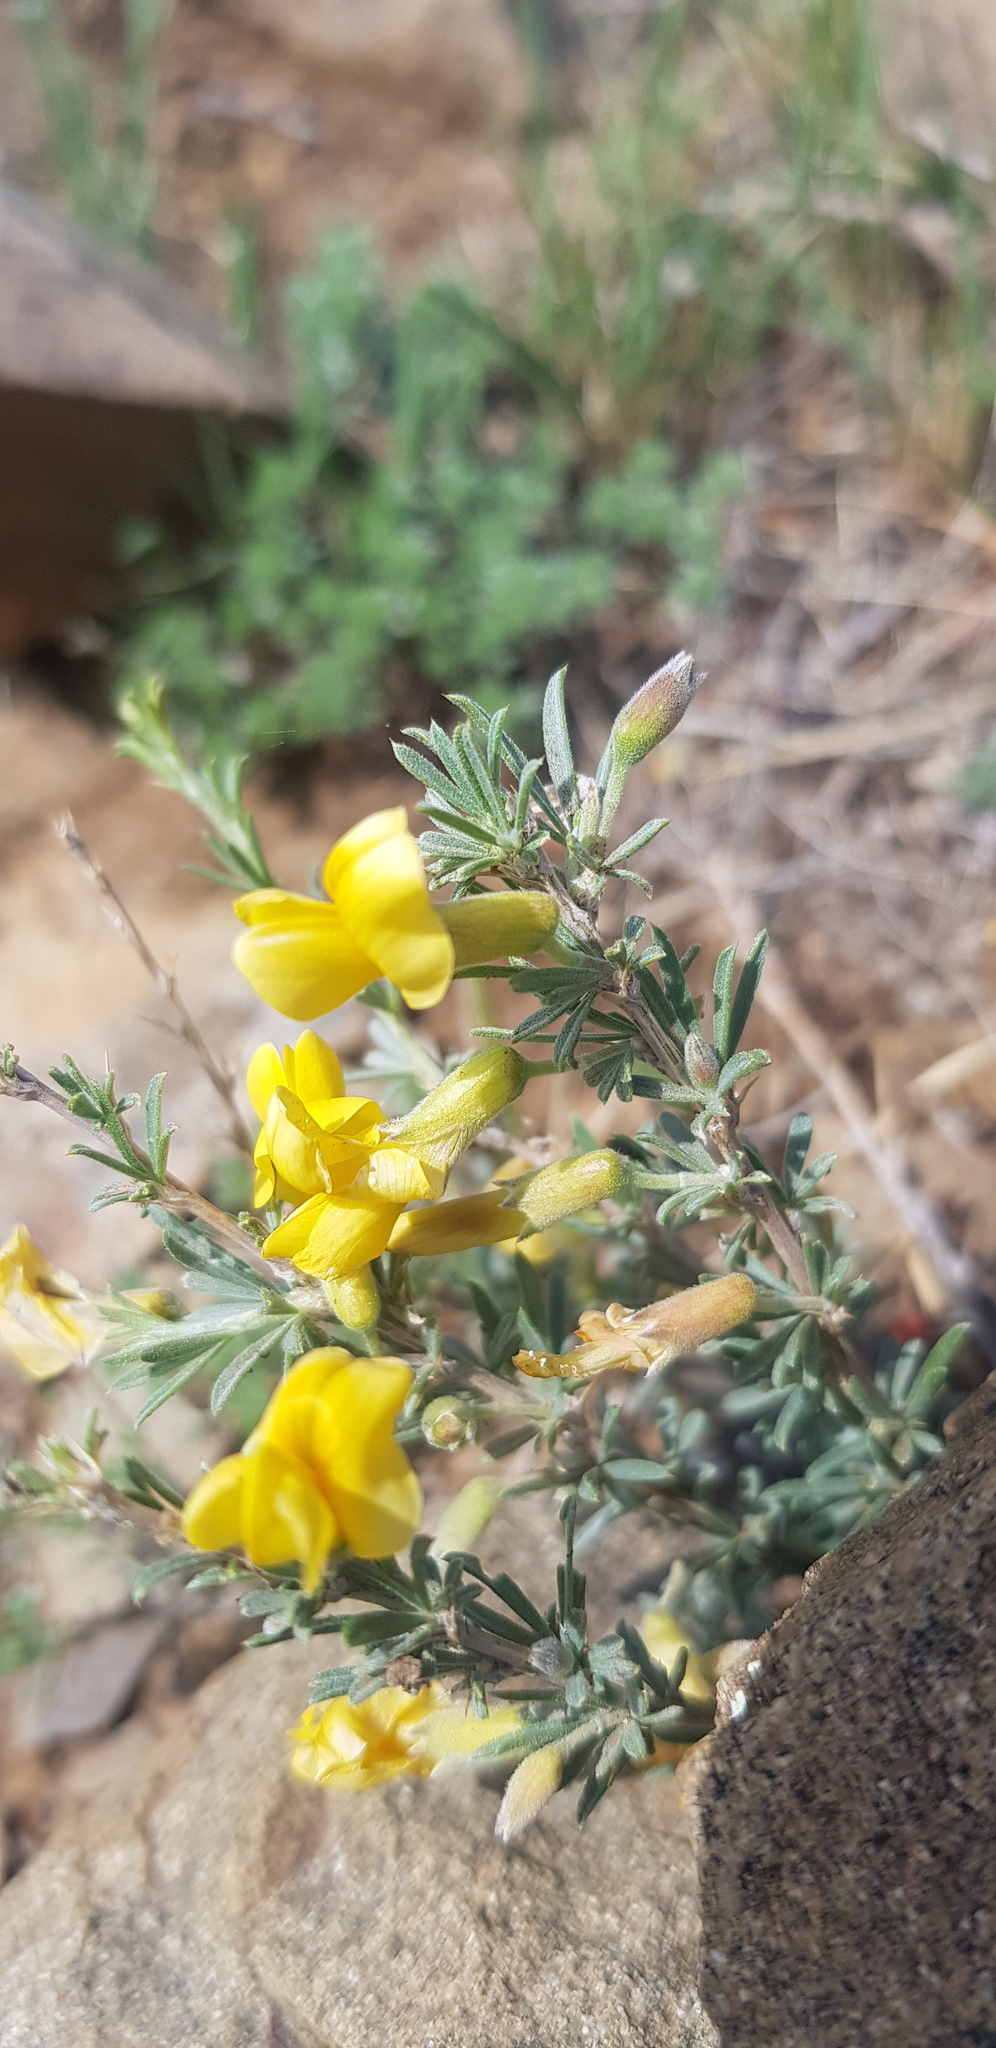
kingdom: Plantae
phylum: Tracheophyta
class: Magnoliopsida
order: Fabales
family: Fabaceae
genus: Caragana
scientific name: Caragana pygmaea
